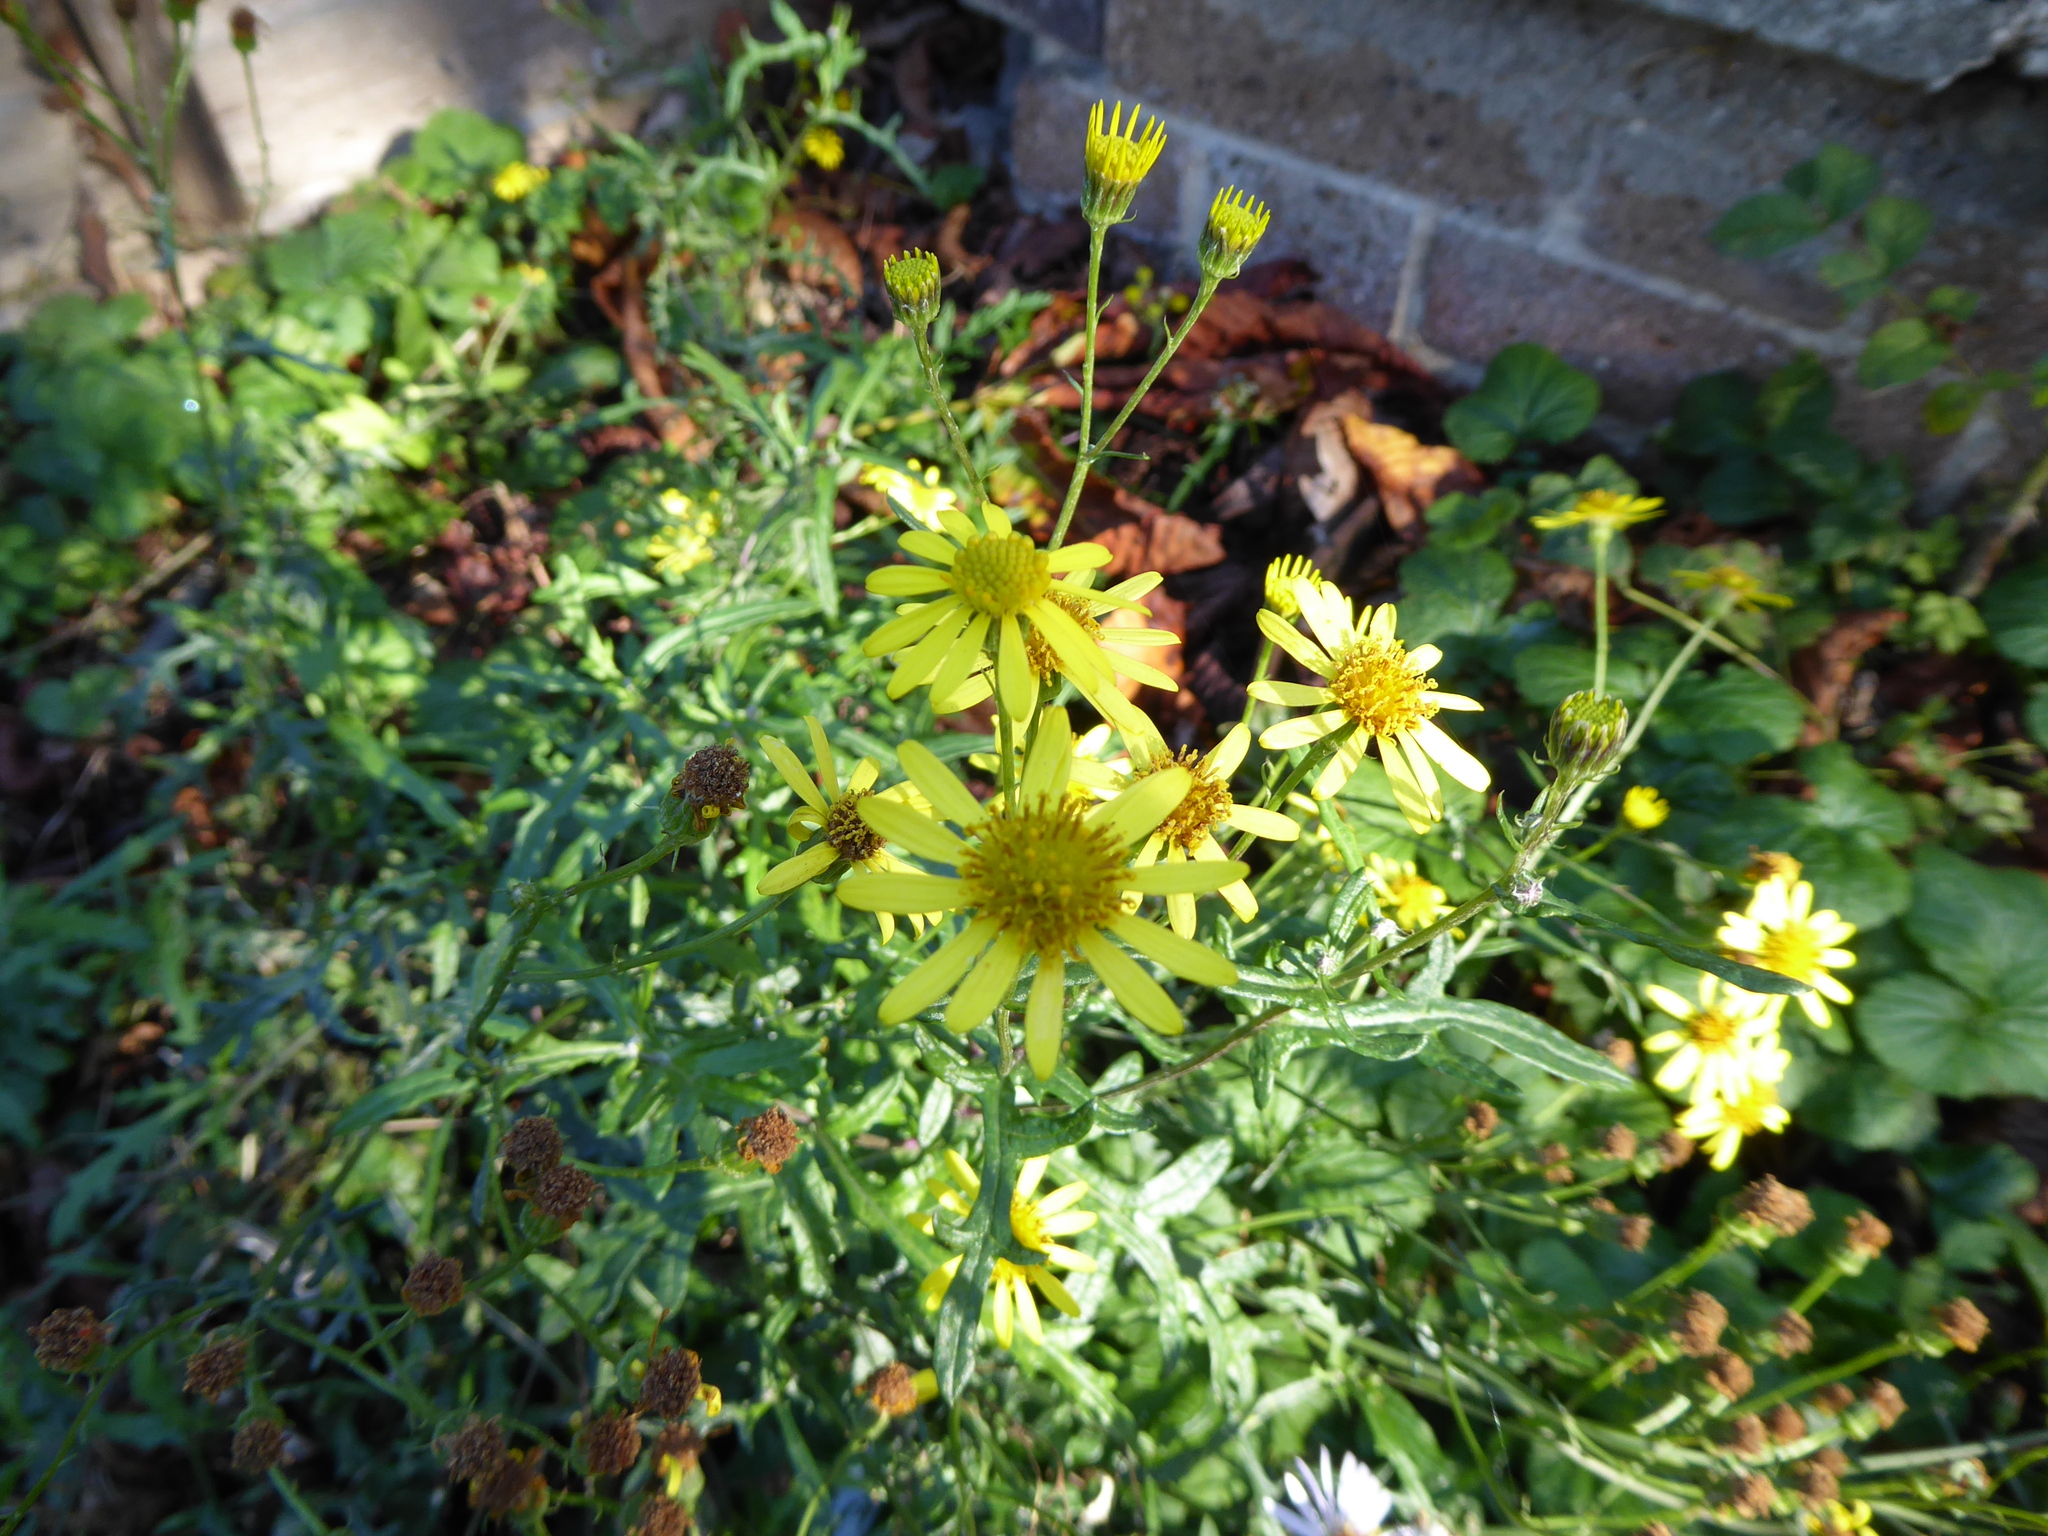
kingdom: Plantae
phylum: Tracheophyta
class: Magnoliopsida
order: Asterales
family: Asteraceae
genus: Senecio
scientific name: Senecio squalidus
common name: Oxford ragwort
